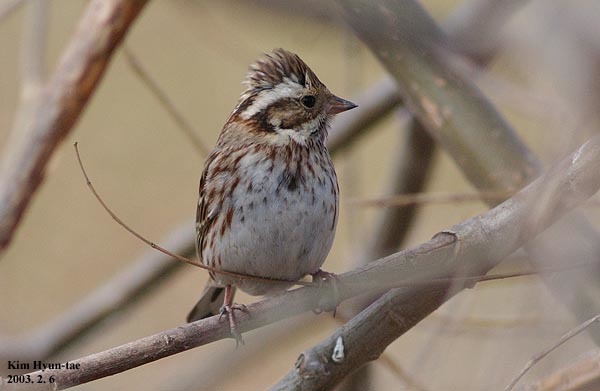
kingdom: Animalia
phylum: Chordata
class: Aves
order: Passeriformes
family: Emberizidae
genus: Emberiza
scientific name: Emberiza rustica
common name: Rustic bunting
